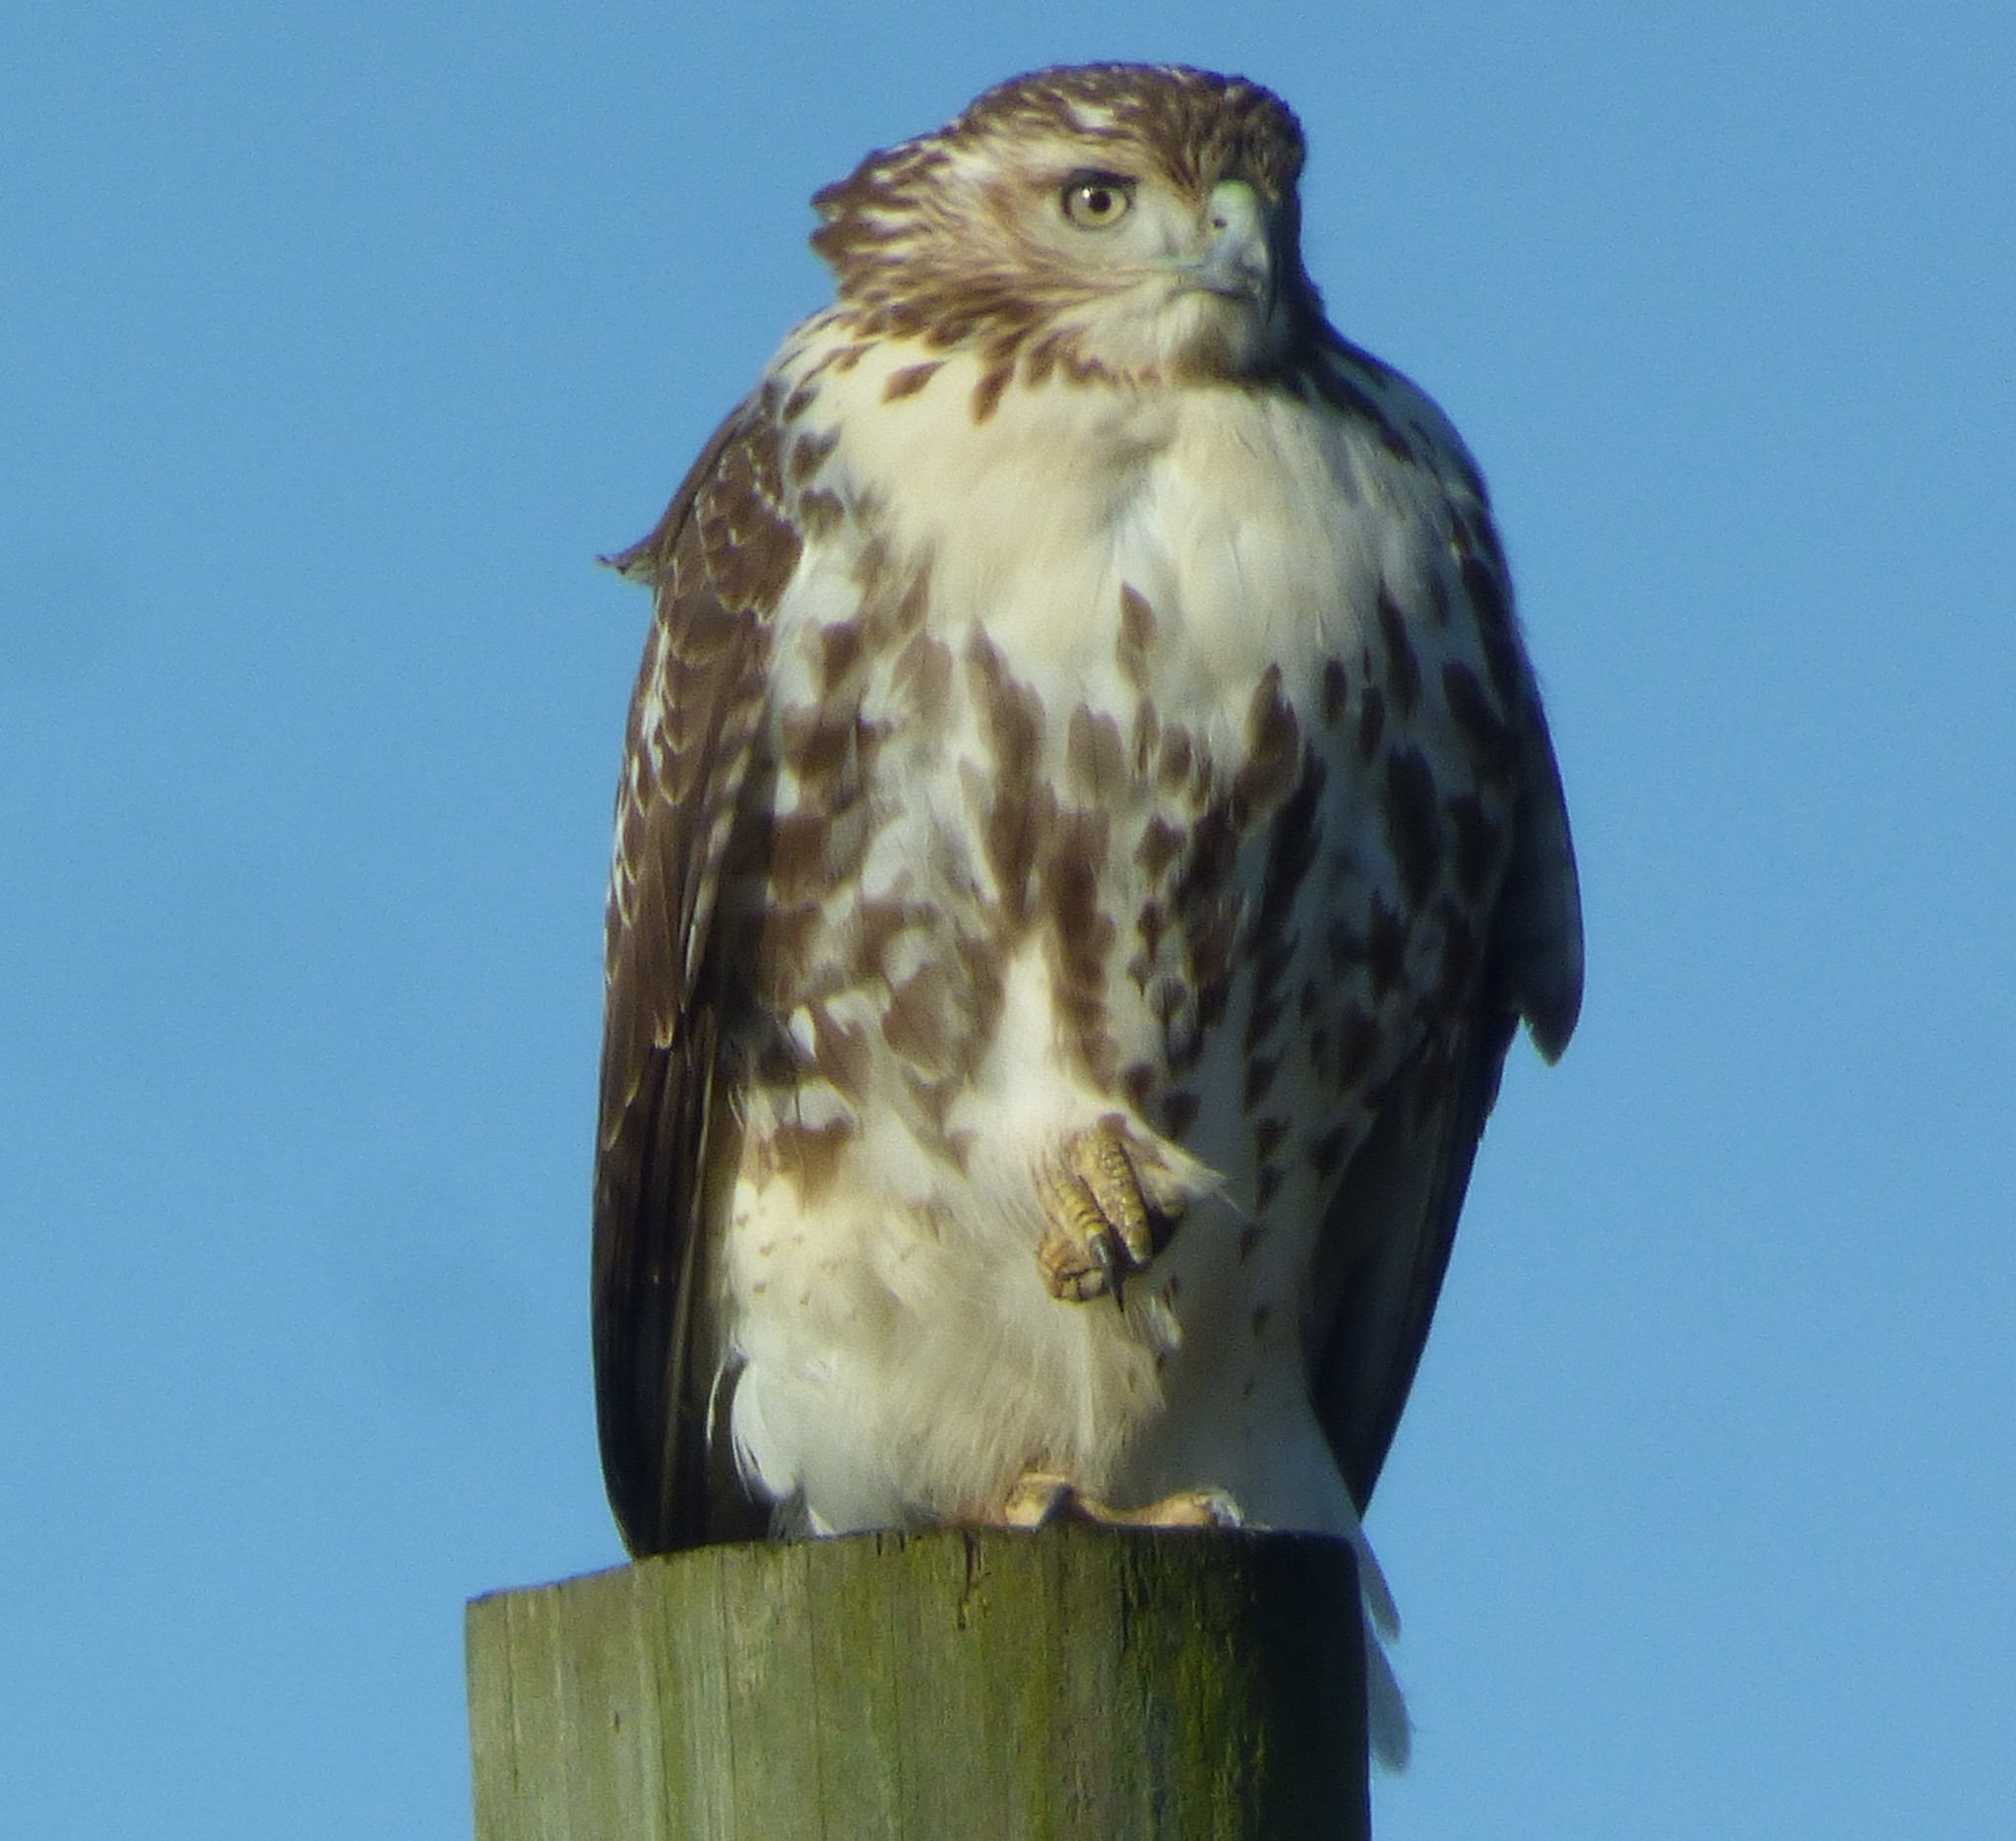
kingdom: Animalia
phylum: Chordata
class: Aves
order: Accipitriformes
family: Accipitridae
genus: Buteo
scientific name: Buteo jamaicensis
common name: Red-tailed hawk
